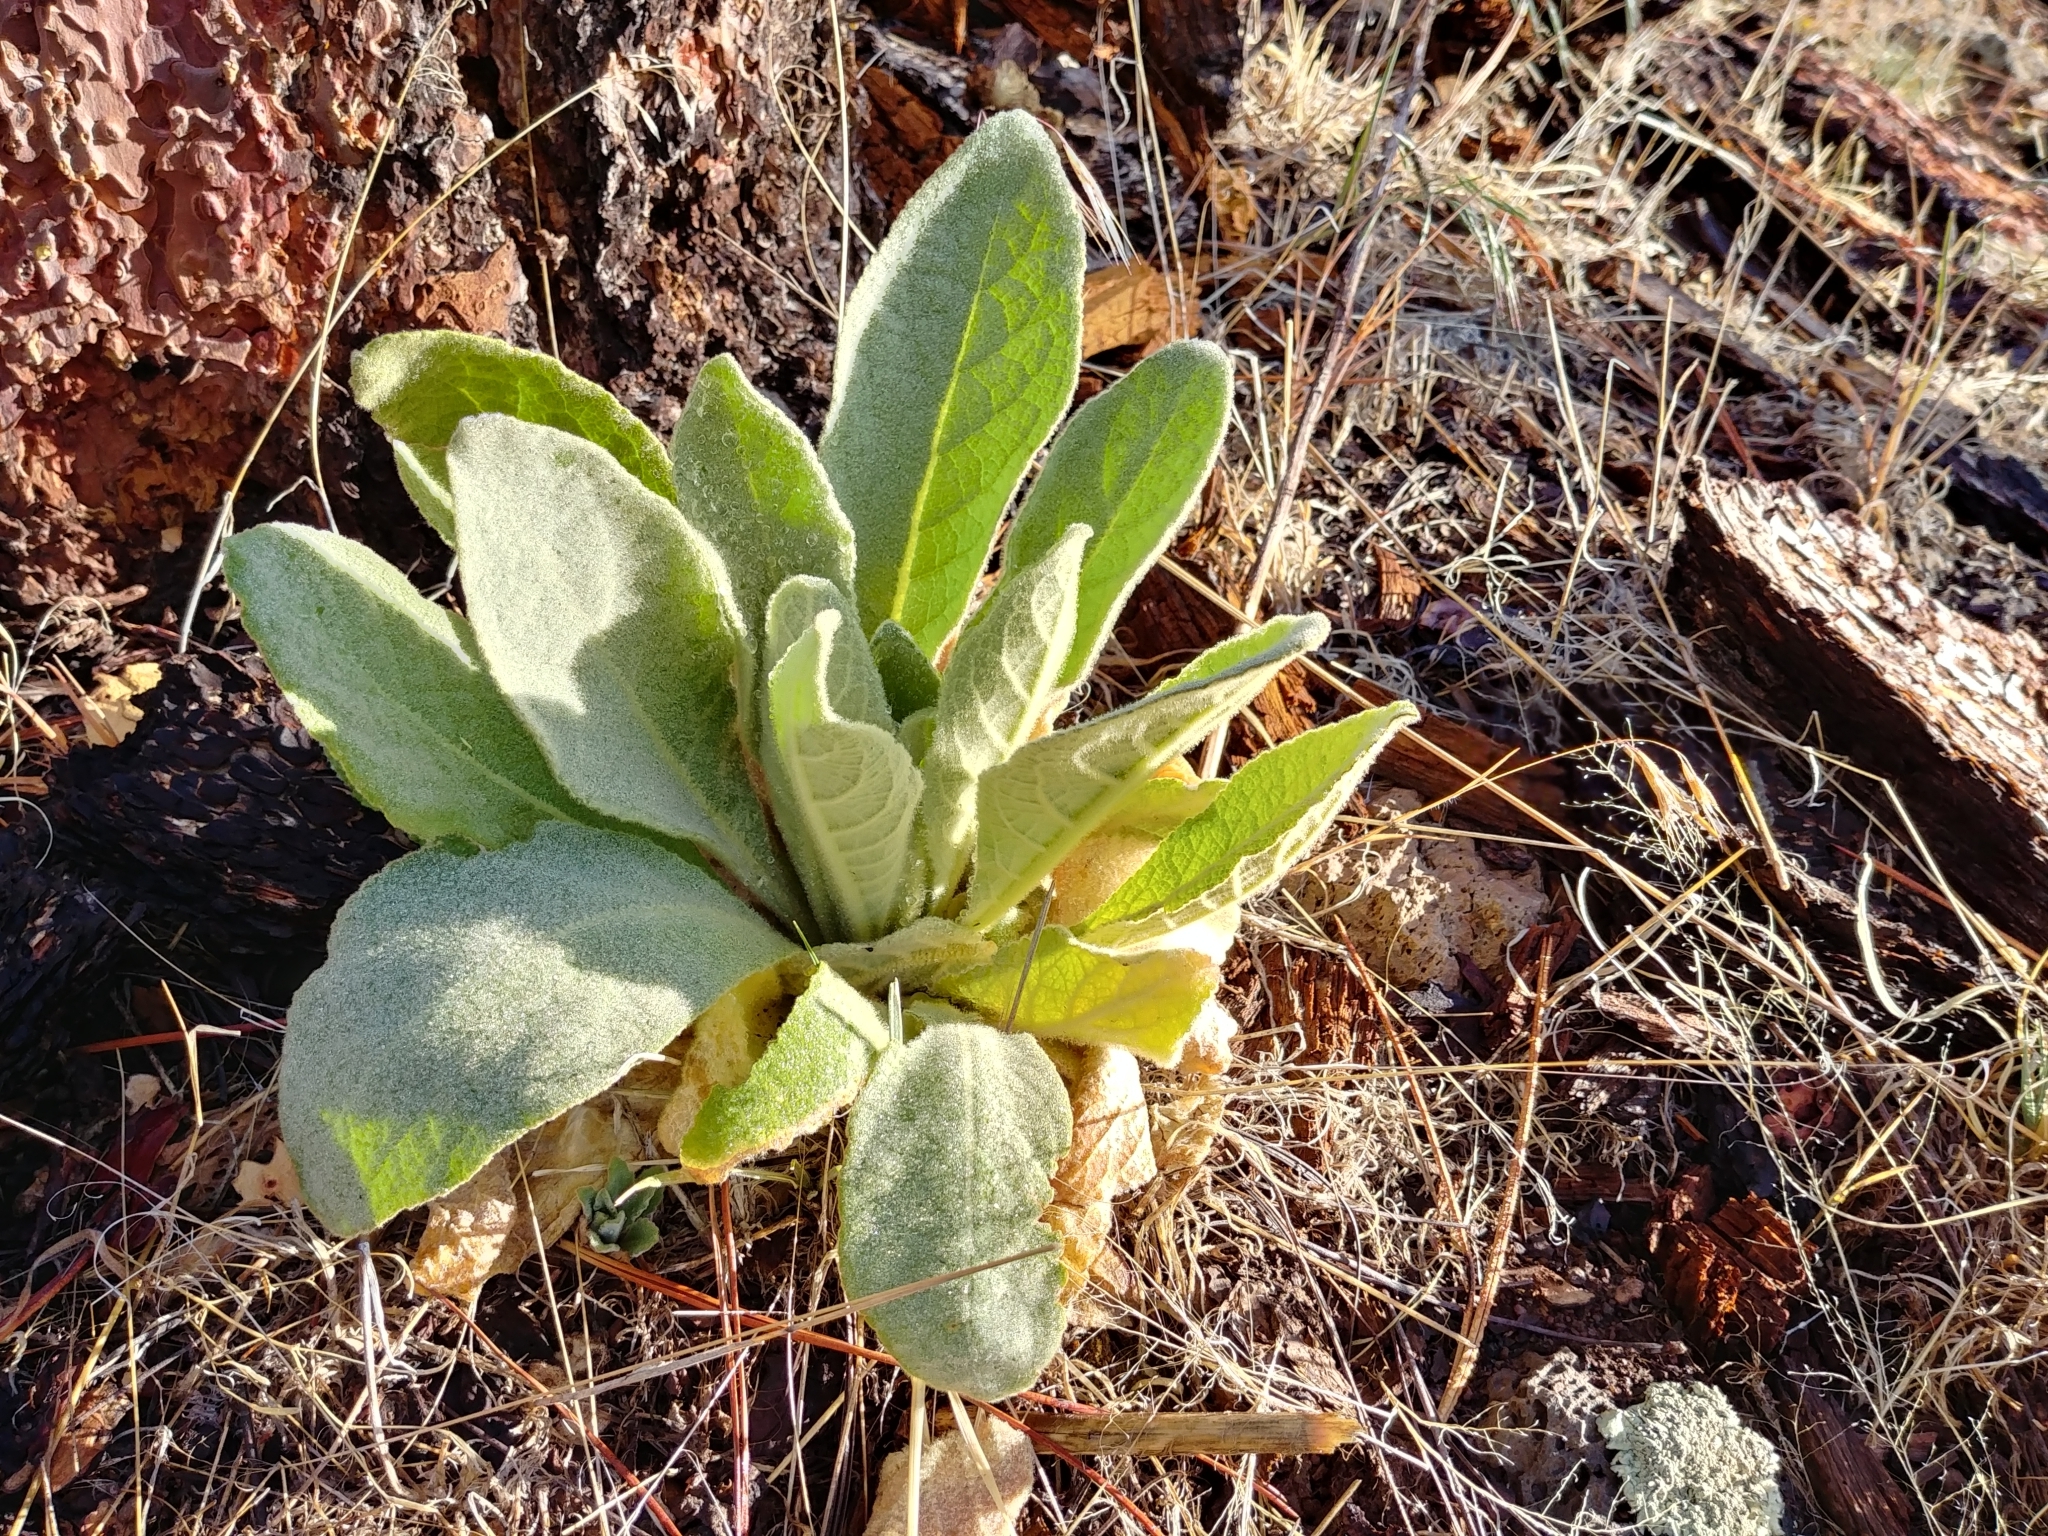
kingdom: Plantae
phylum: Tracheophyta
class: Magnoliopsida
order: Lamiales
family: Scrophulariaceae
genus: Verbascum
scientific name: Verbascum thapsus
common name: Common mullein
